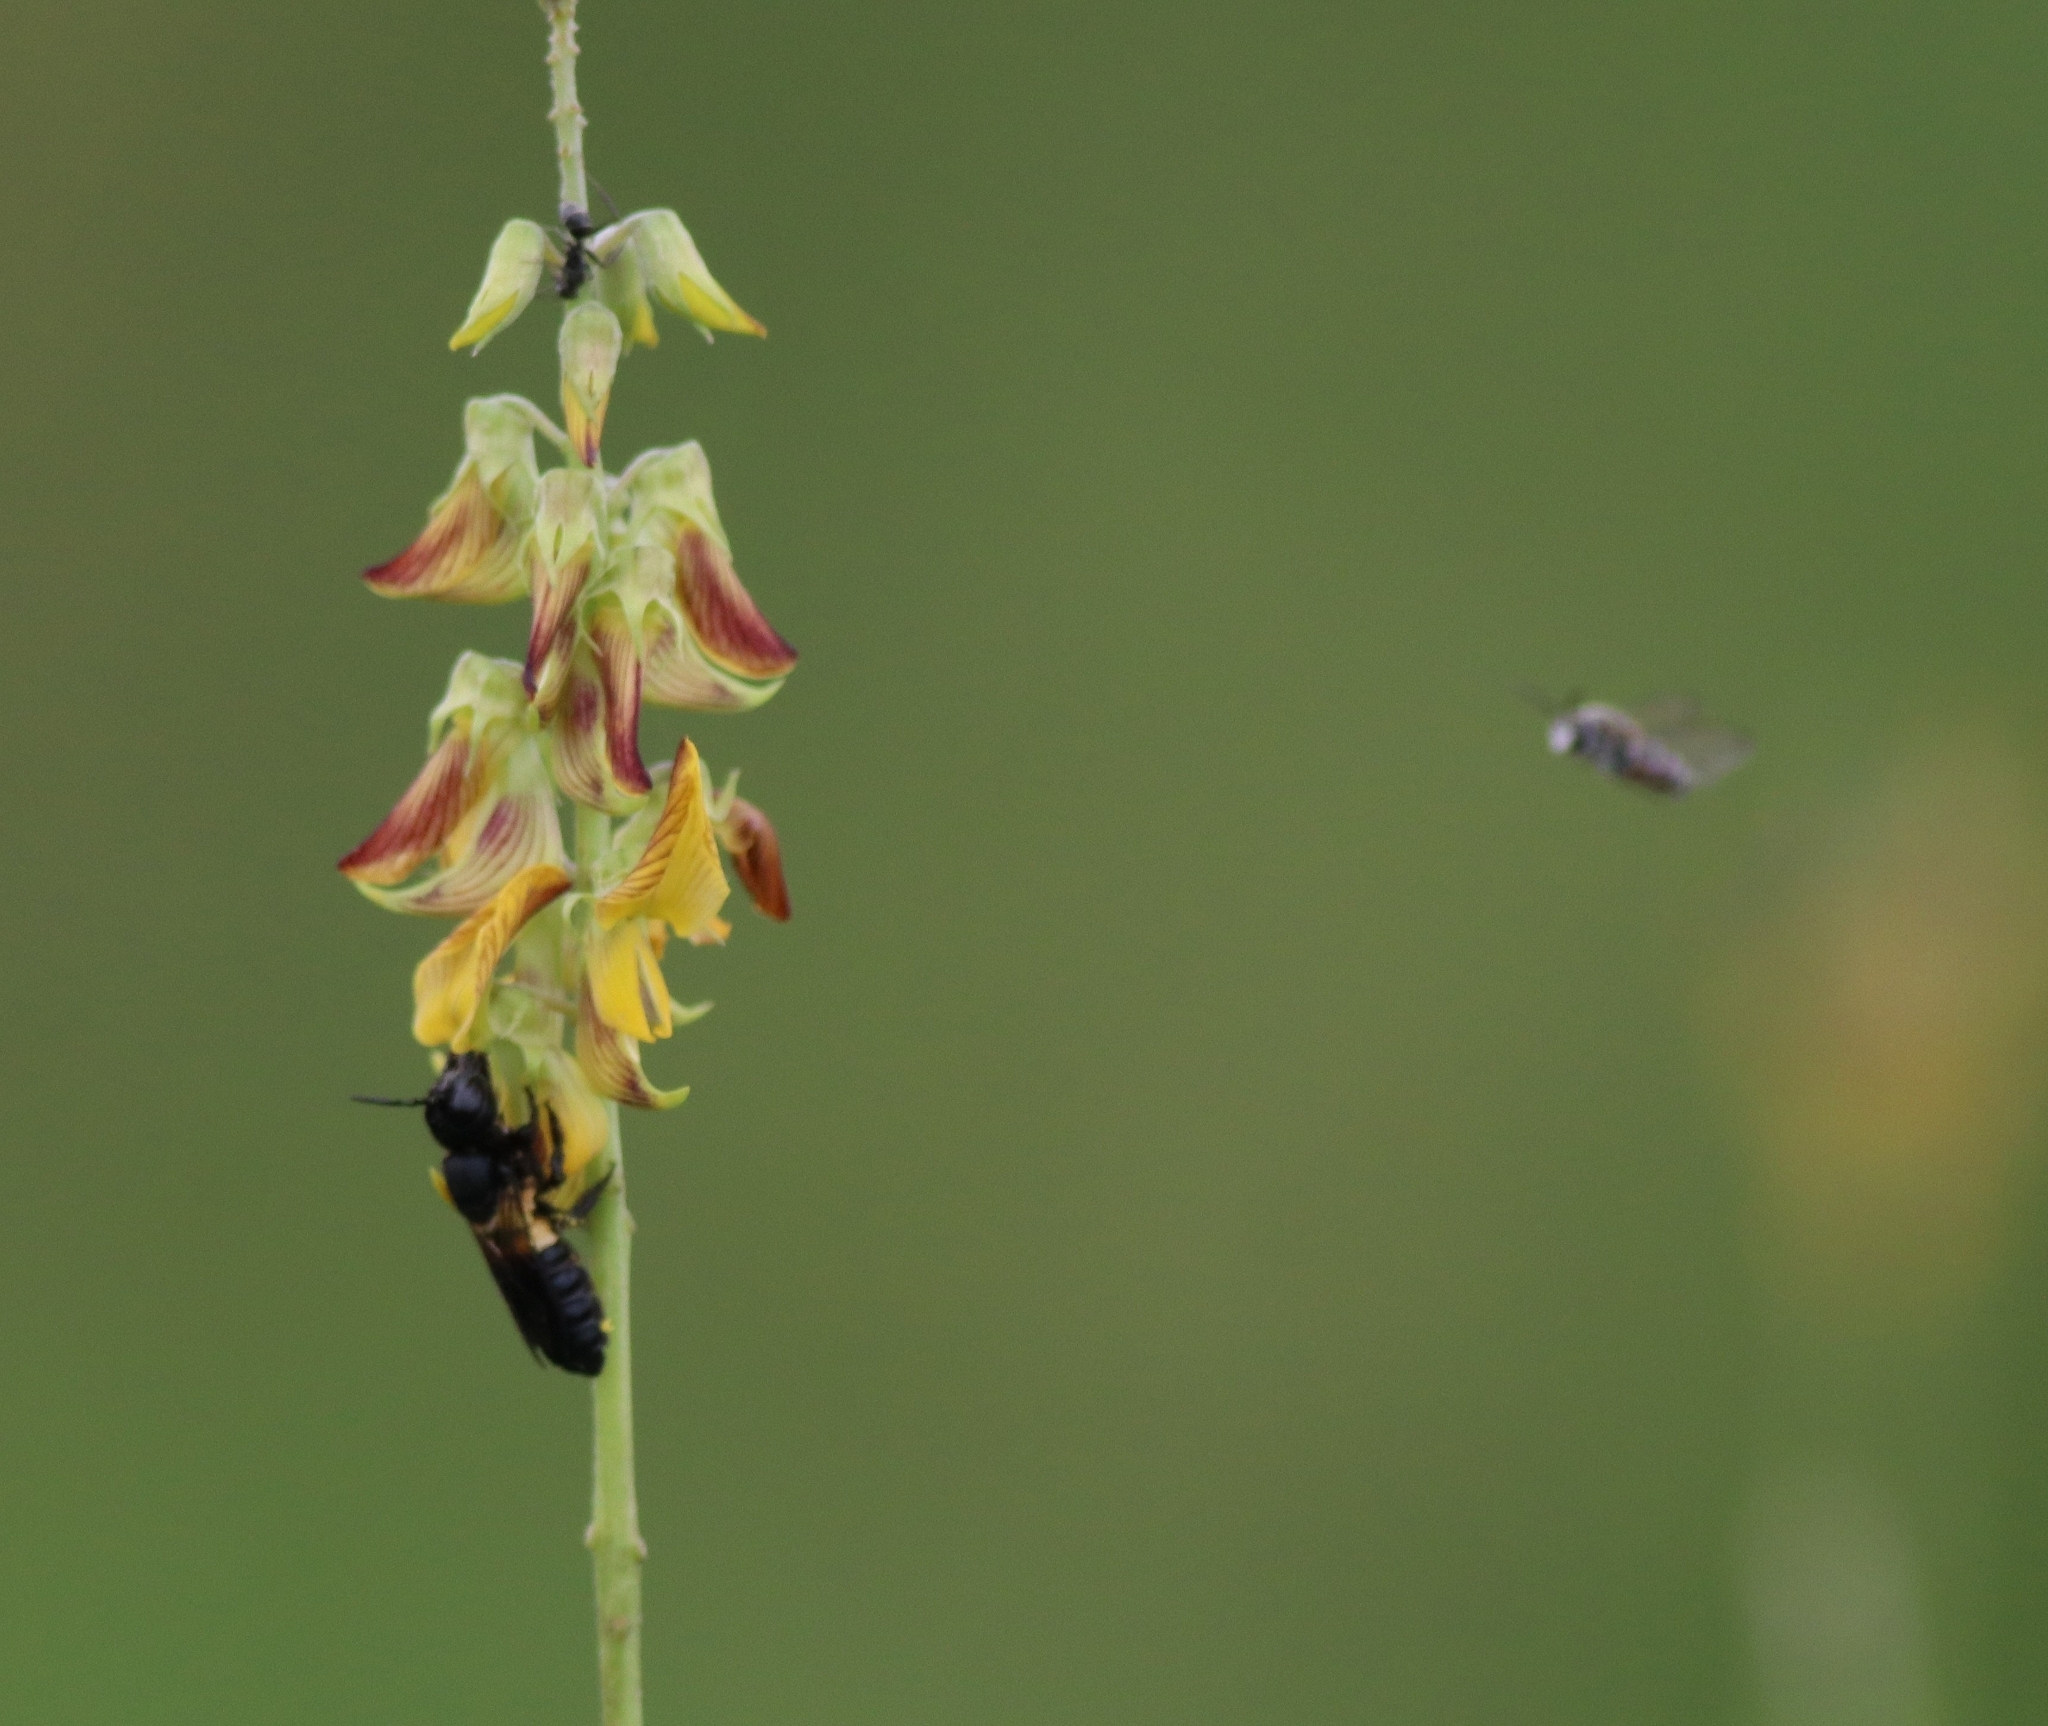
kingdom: Animalia
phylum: Arthropoda
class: Insecta
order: Hymenoptera
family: Megachilidae
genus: Megachile
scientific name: Megachile disjuncta
